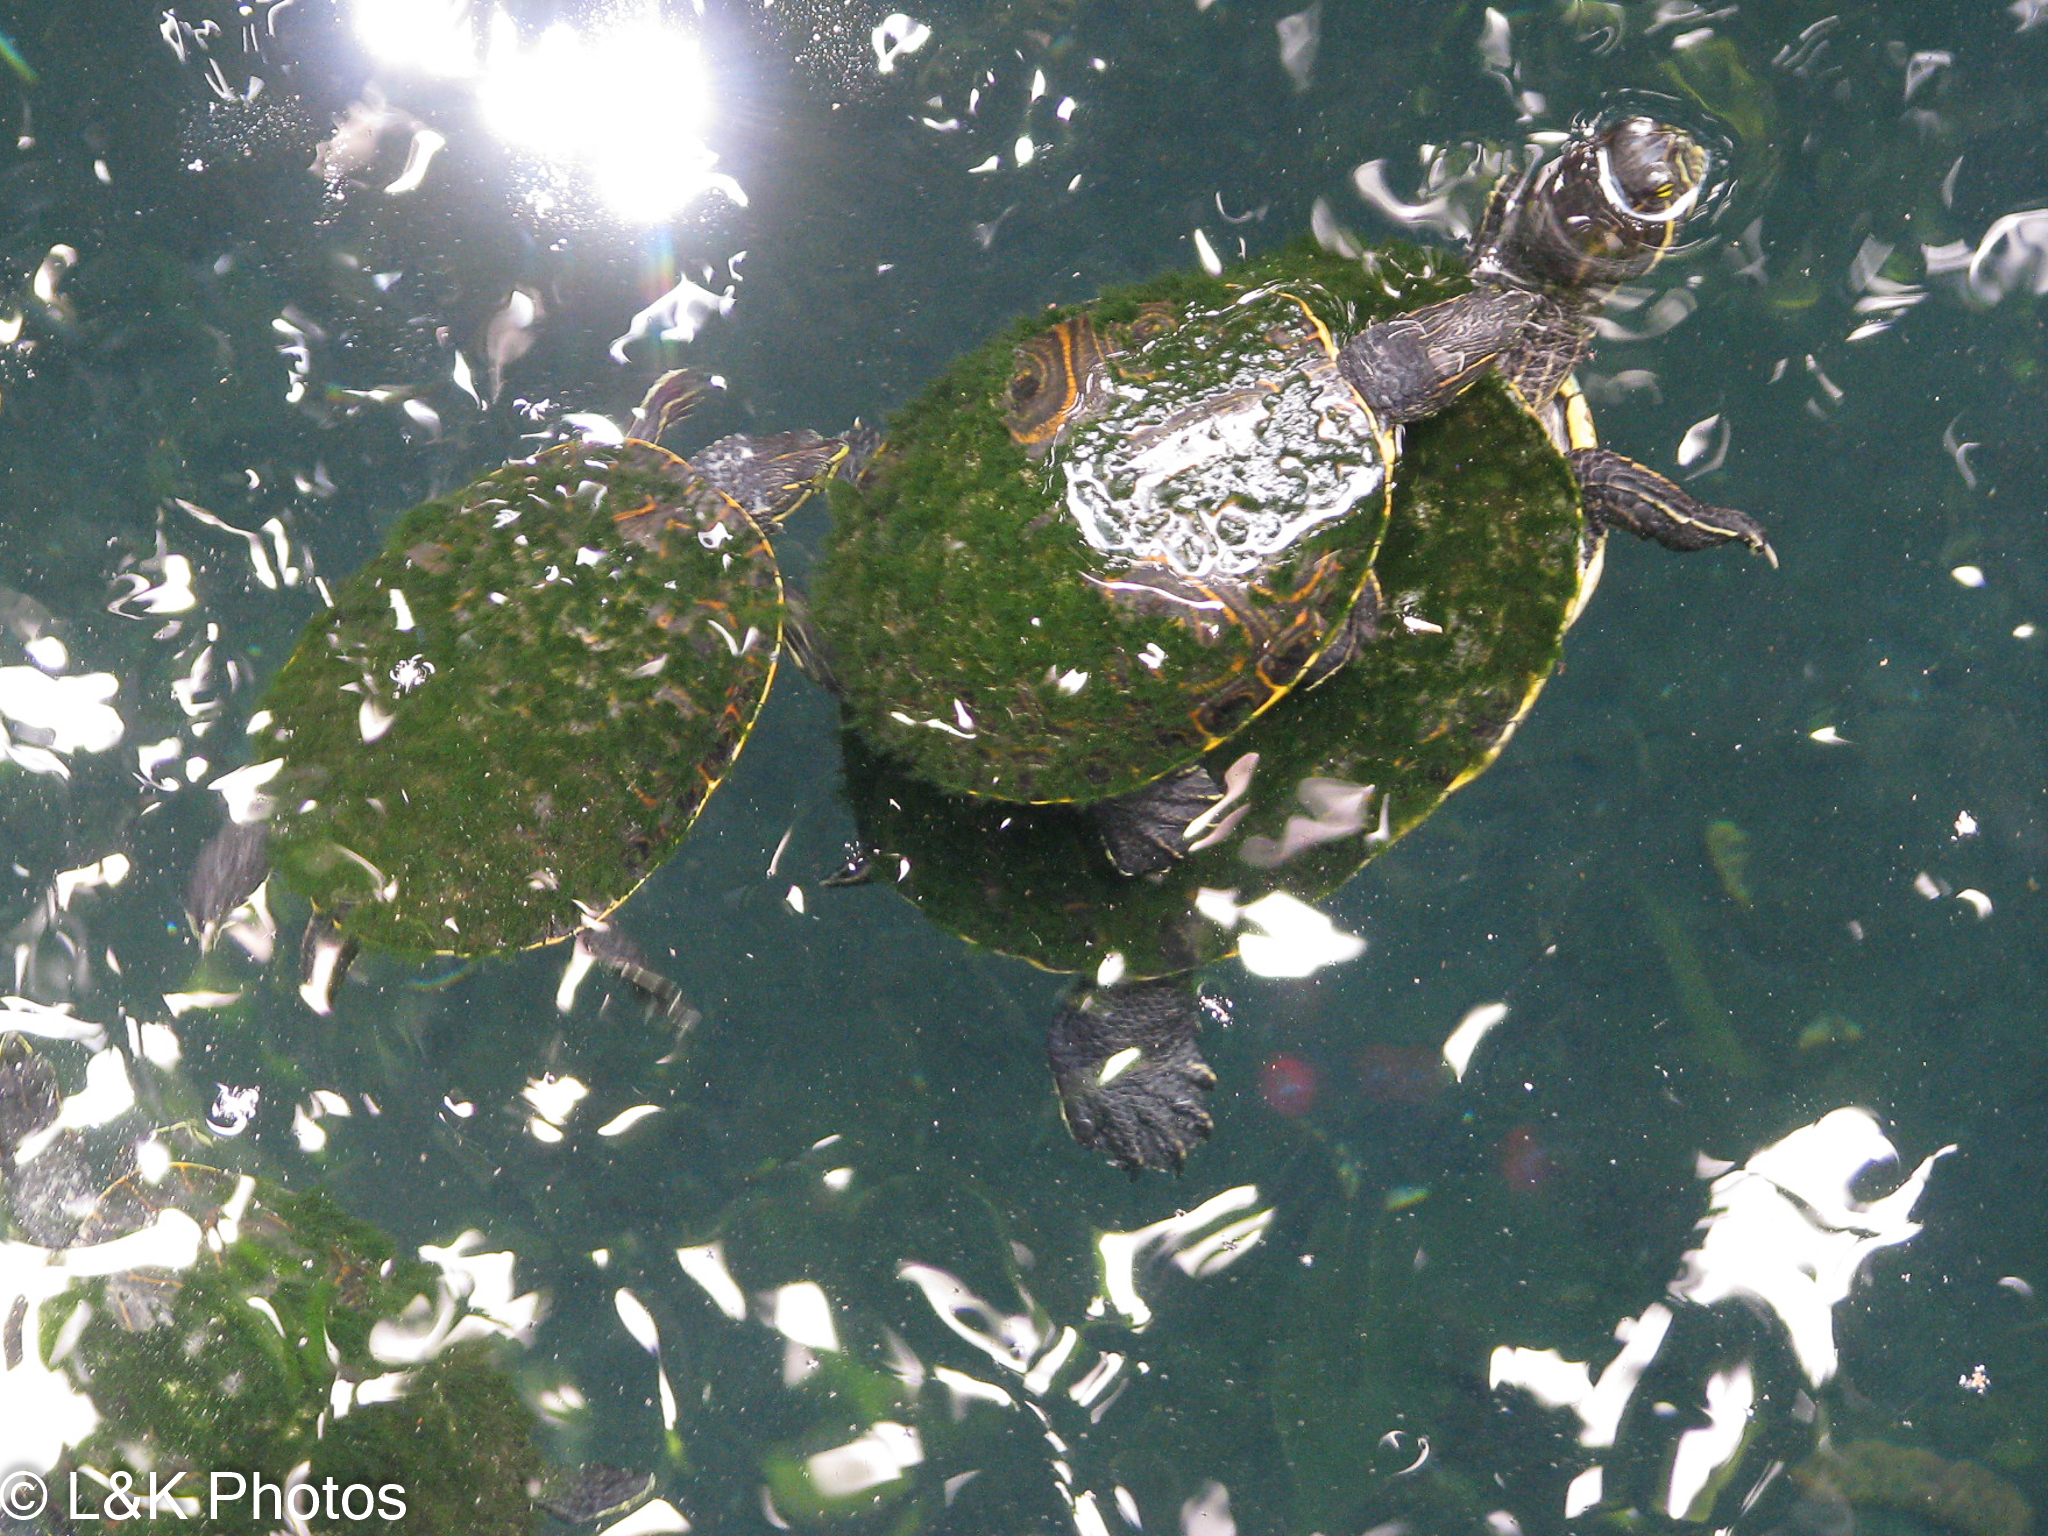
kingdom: Animalia
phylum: Chordata
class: Testudines
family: Emydidae
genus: Trachemys
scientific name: Trachemys venusta
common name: Mesoamerican slider
